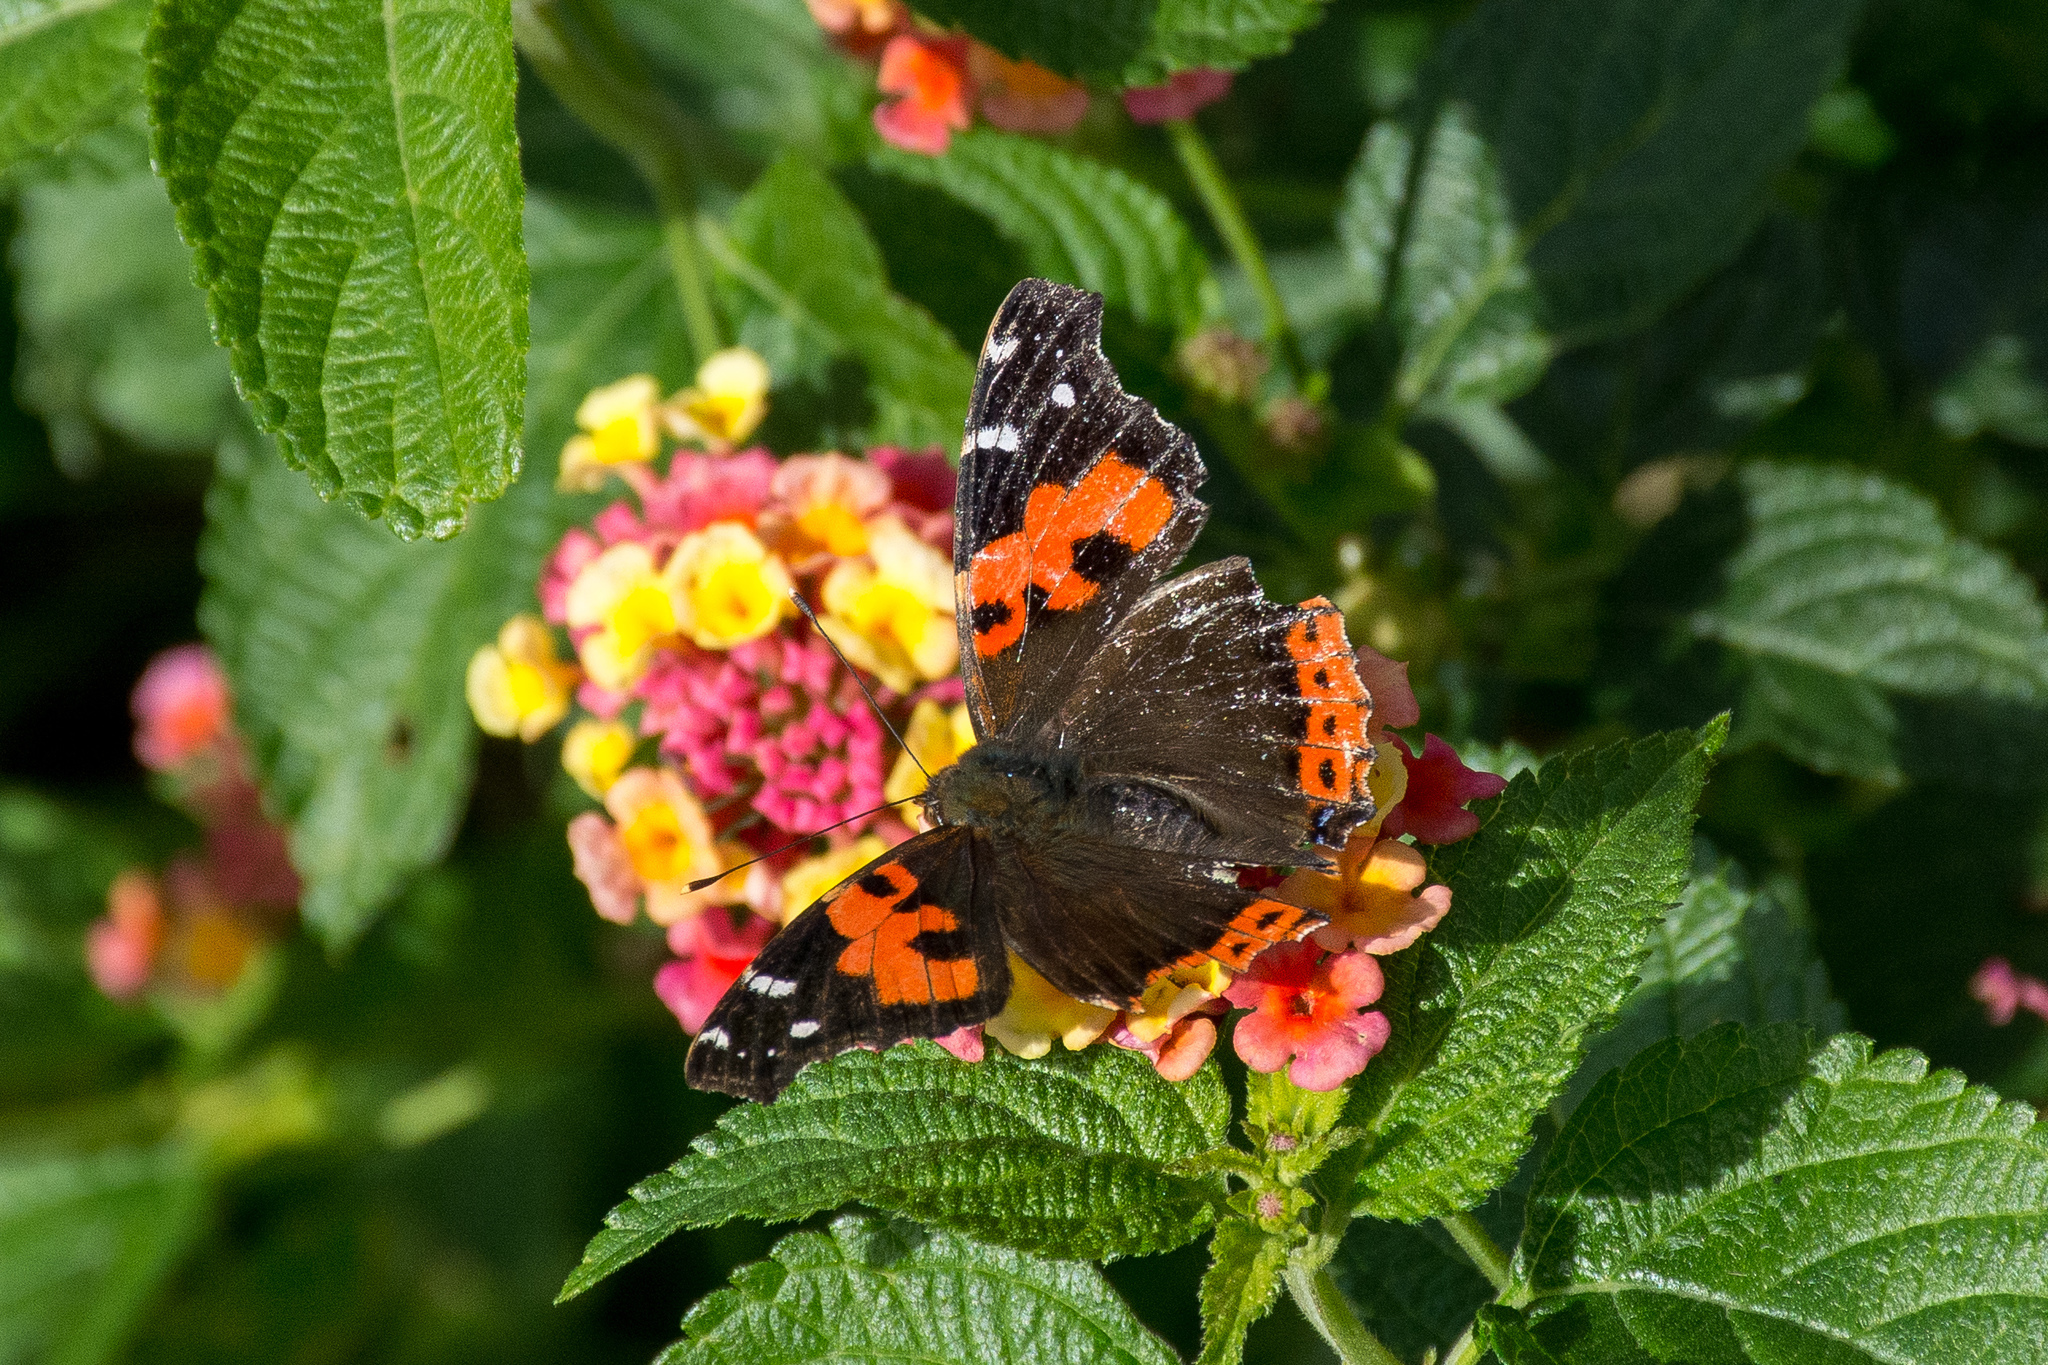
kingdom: Animalia
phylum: Arthropoda
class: Insecta
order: Lepidoptera
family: Nymphalidae
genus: Vanessa
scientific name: Vanessa vulcania
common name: Canary red admiral
